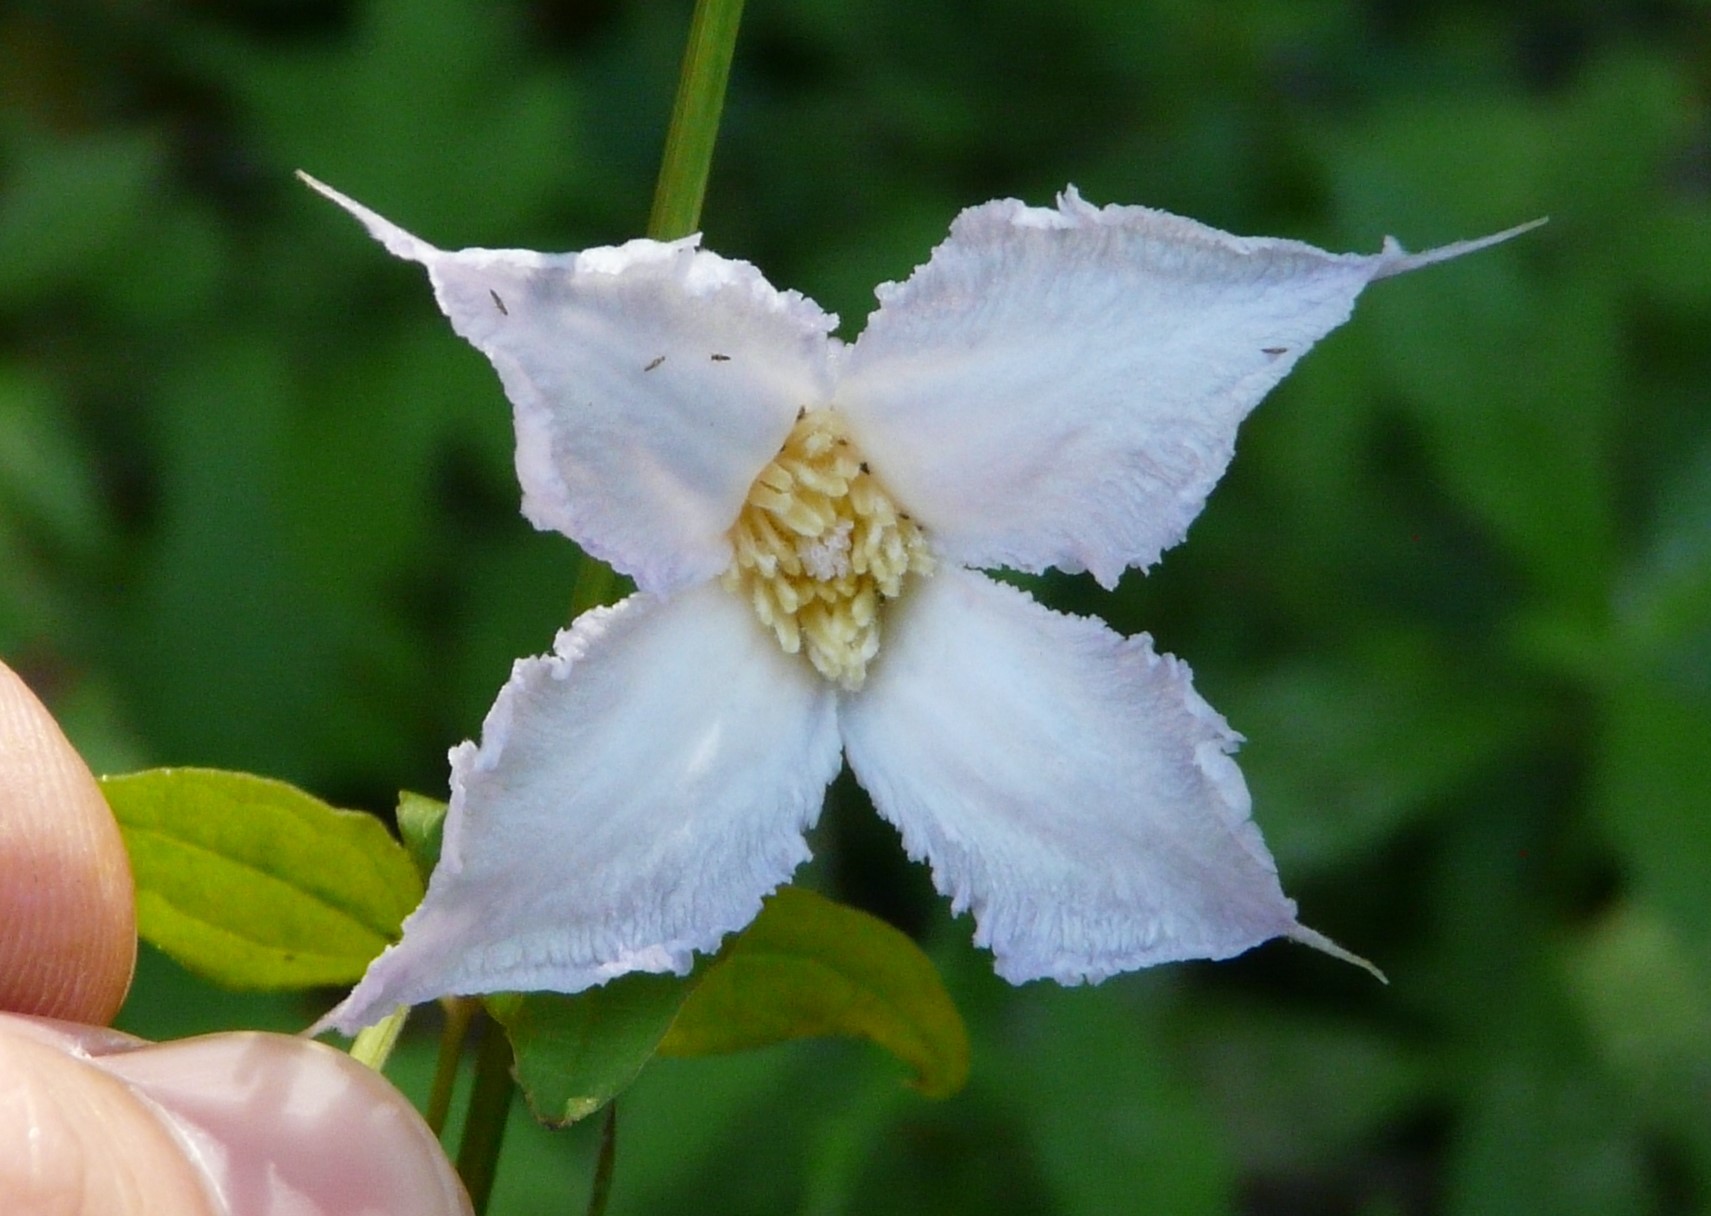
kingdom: Plantae
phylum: Tracheophyta
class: Magnoliopsida
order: Ranunculales
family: Ranunculaceae
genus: Clematis
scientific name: Clematis crispa
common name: Curly clematis
